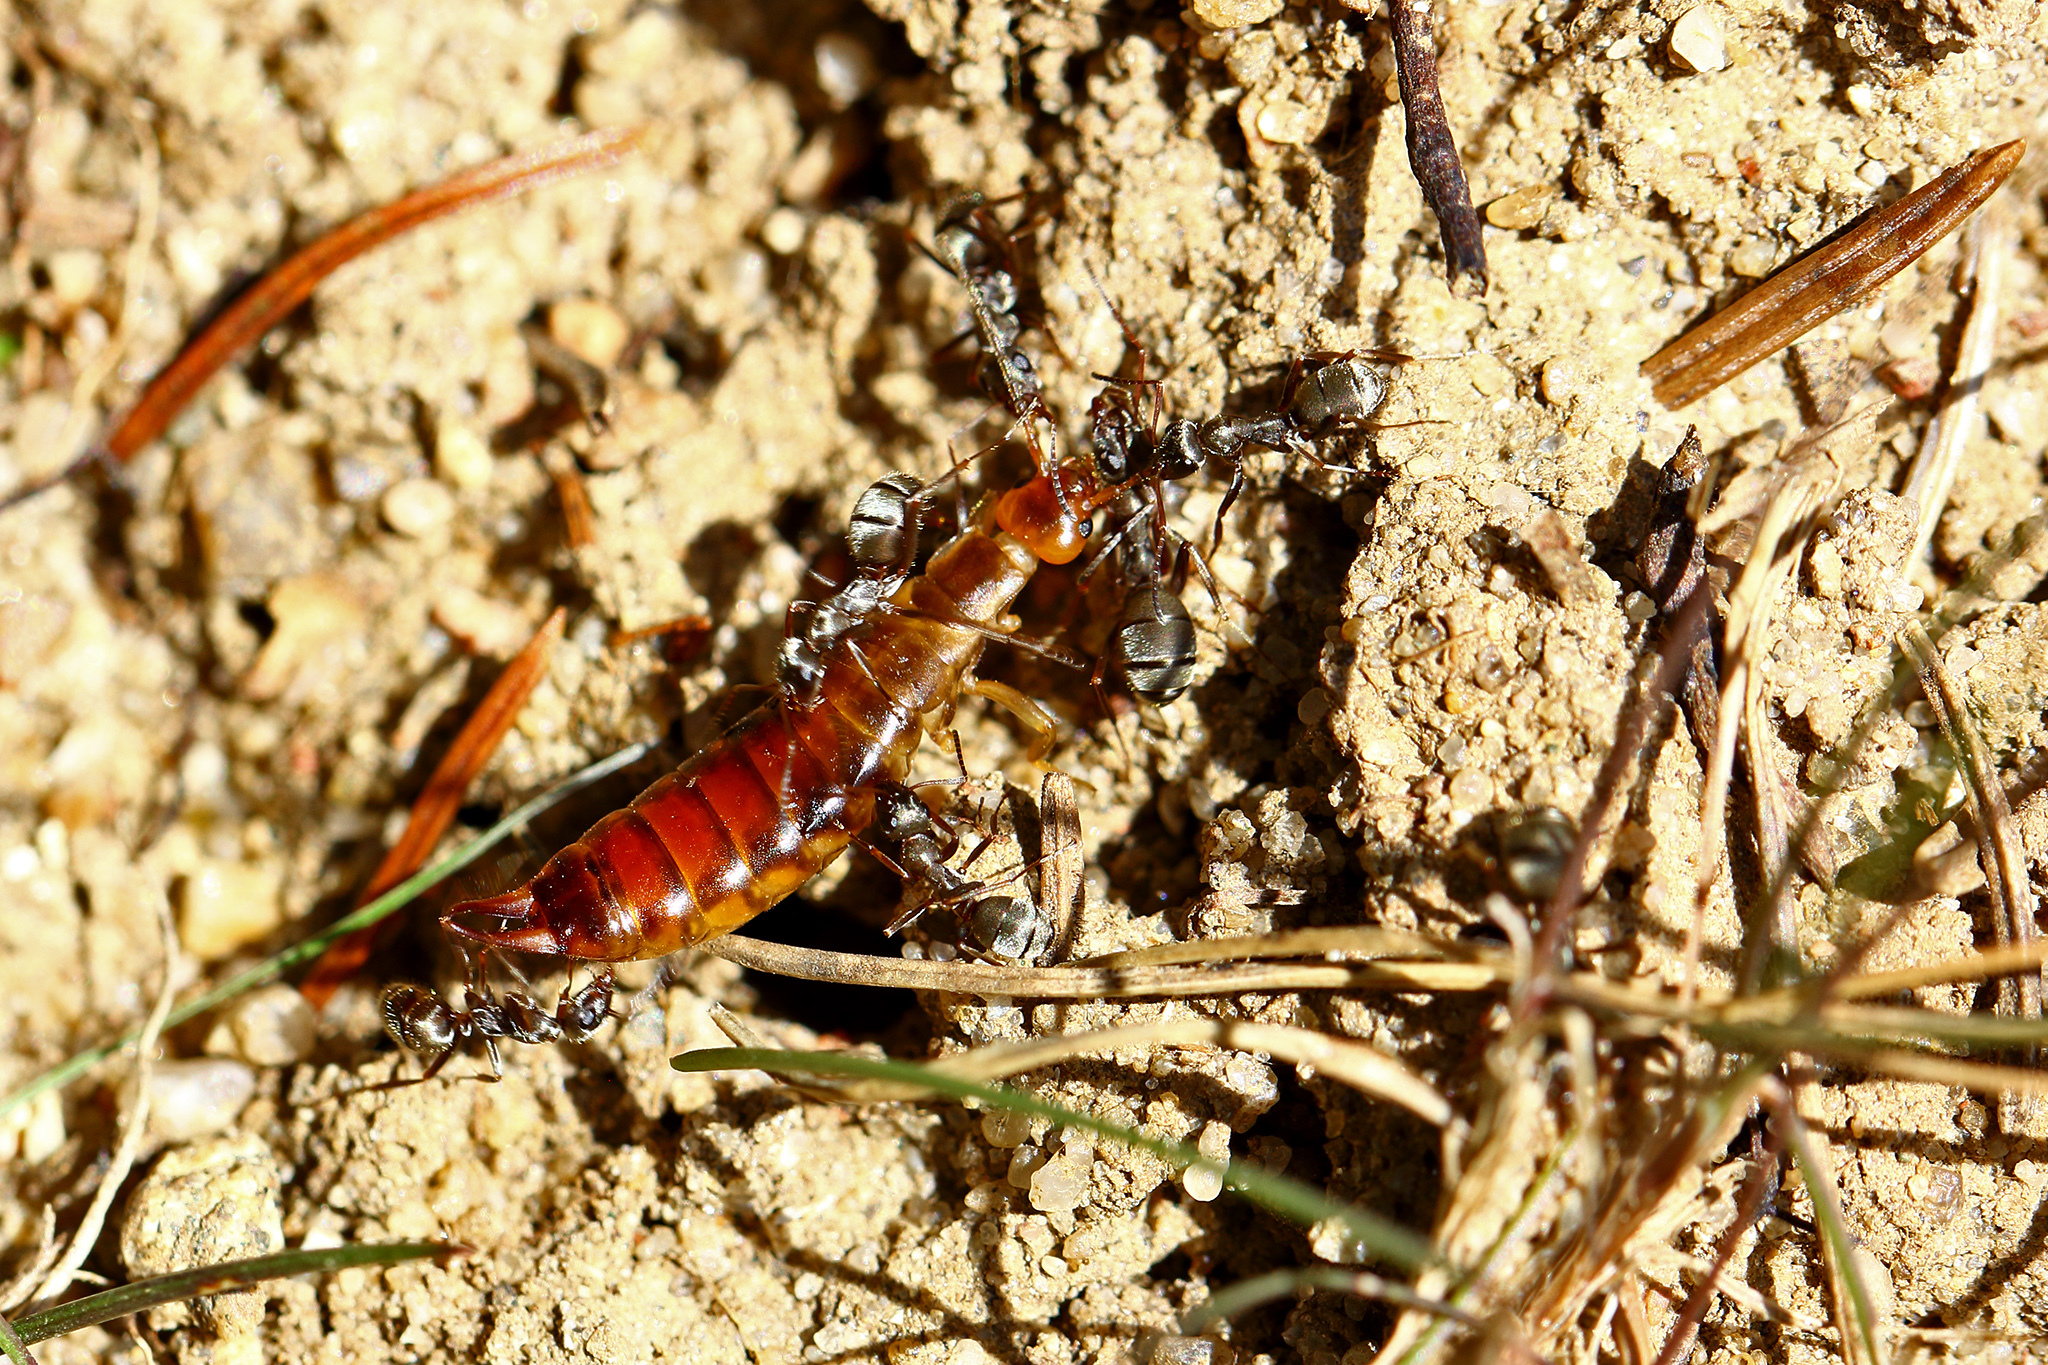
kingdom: Animalia
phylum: Arthropoda
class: Insecta
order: Dermaptera
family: Forficulidae
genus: Chelidurella
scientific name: Chelidurella acanthopygia
